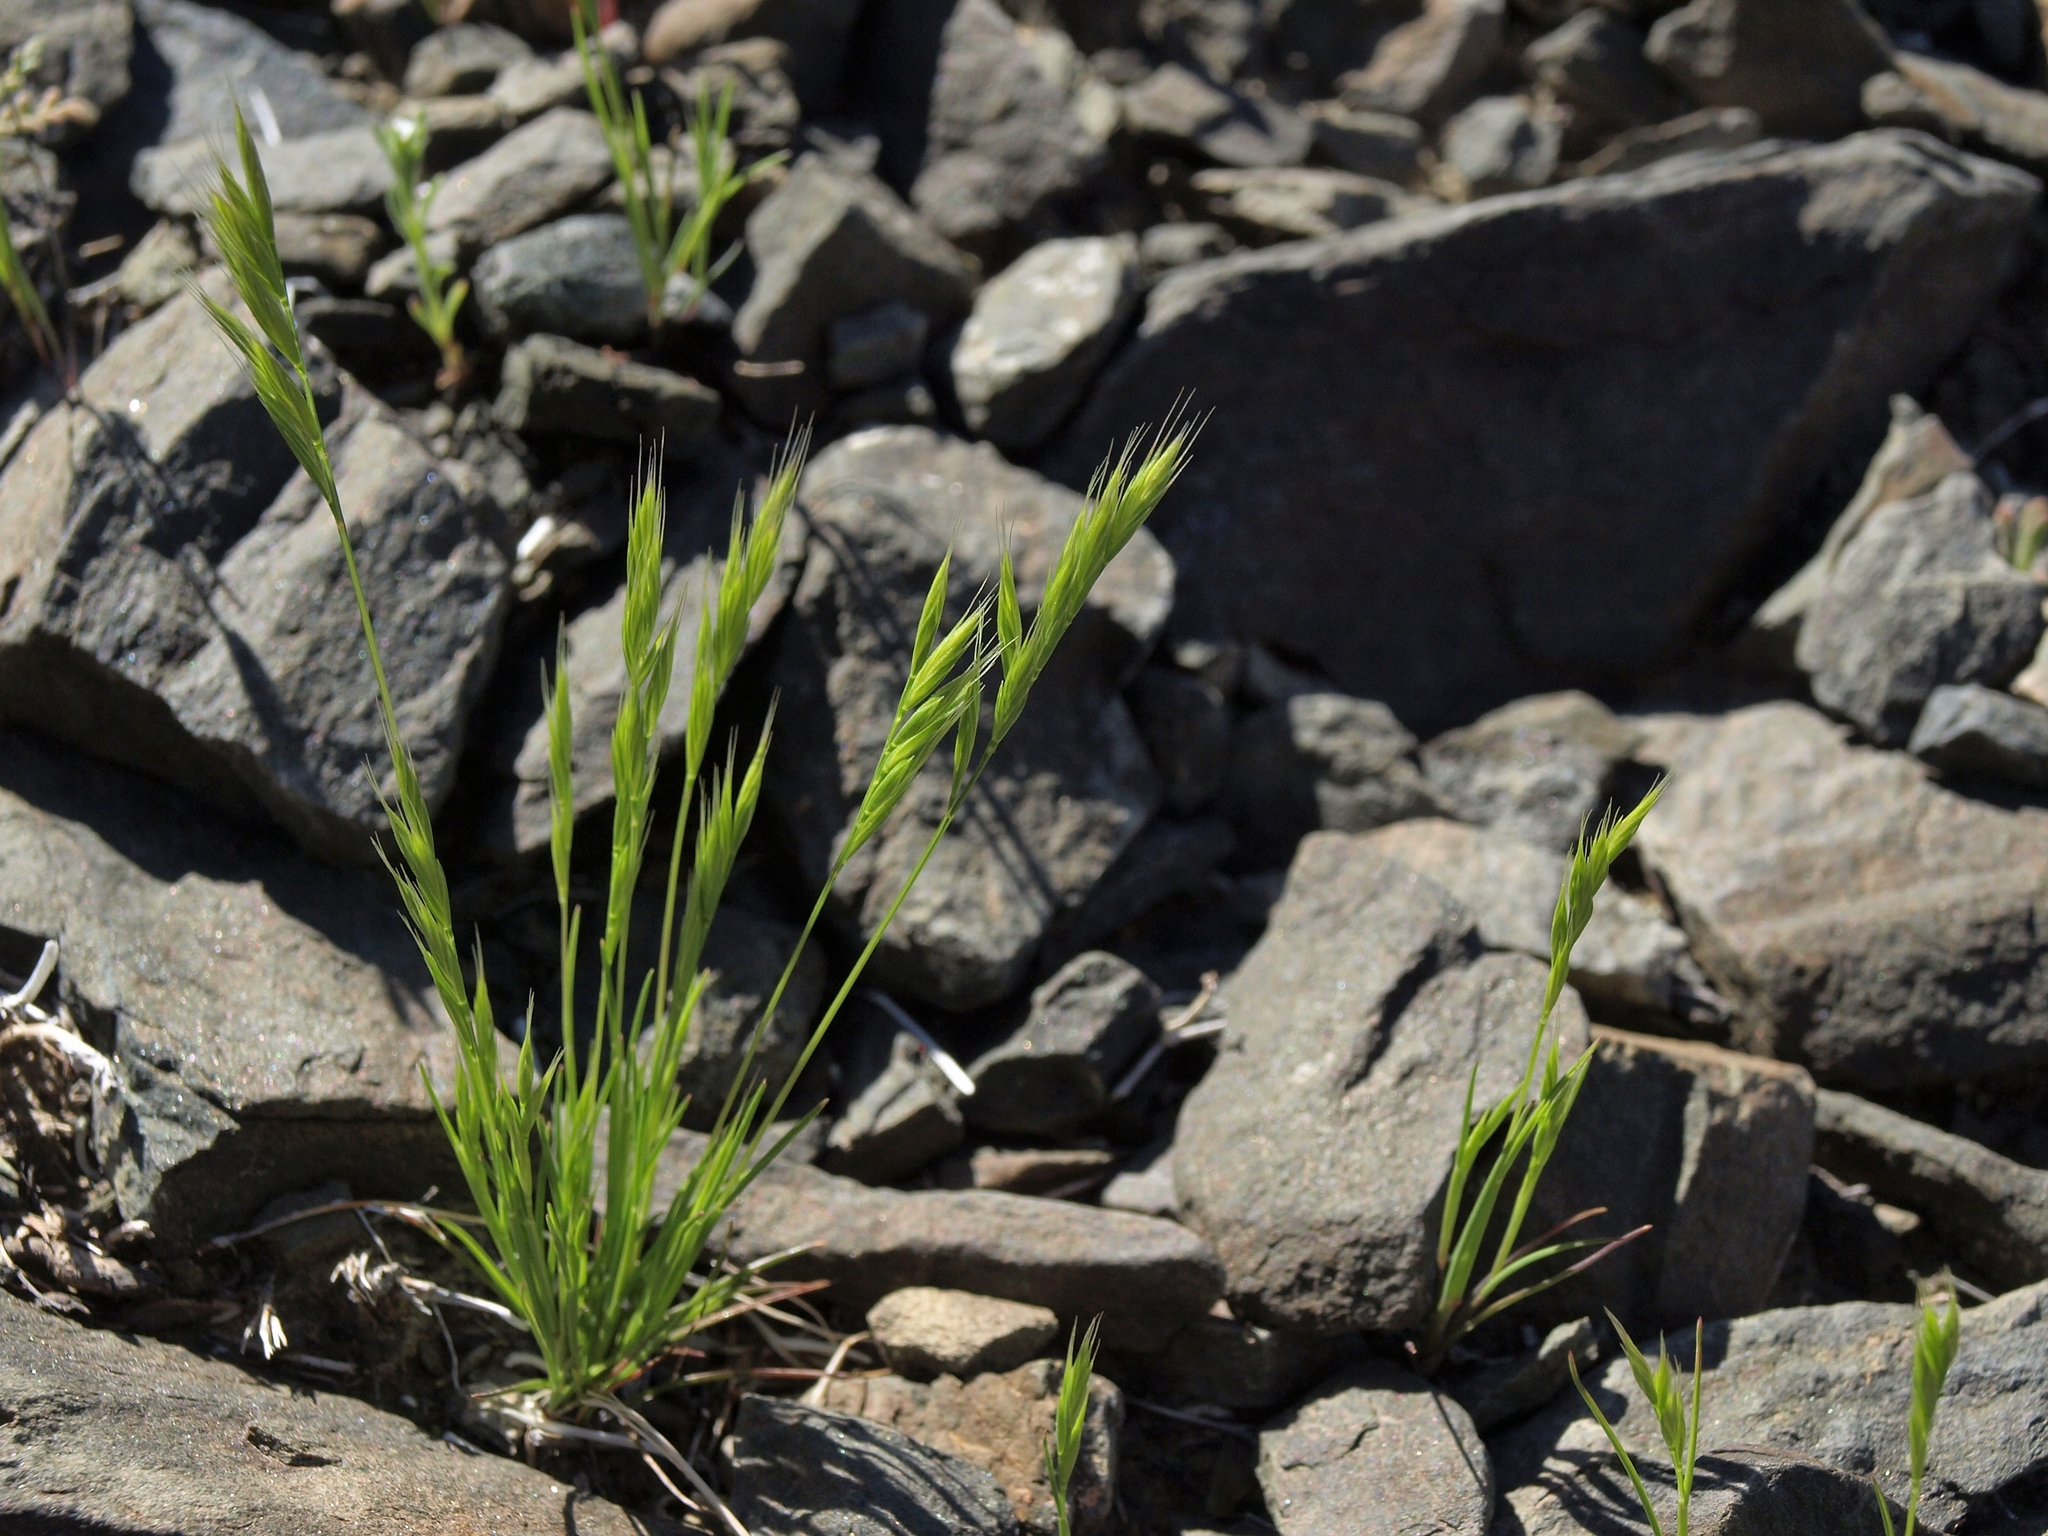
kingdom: Plantae
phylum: Tracheophyta
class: Liliopsida
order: Poales
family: Poaceae
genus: Festuca
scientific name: Festuca microstachys
